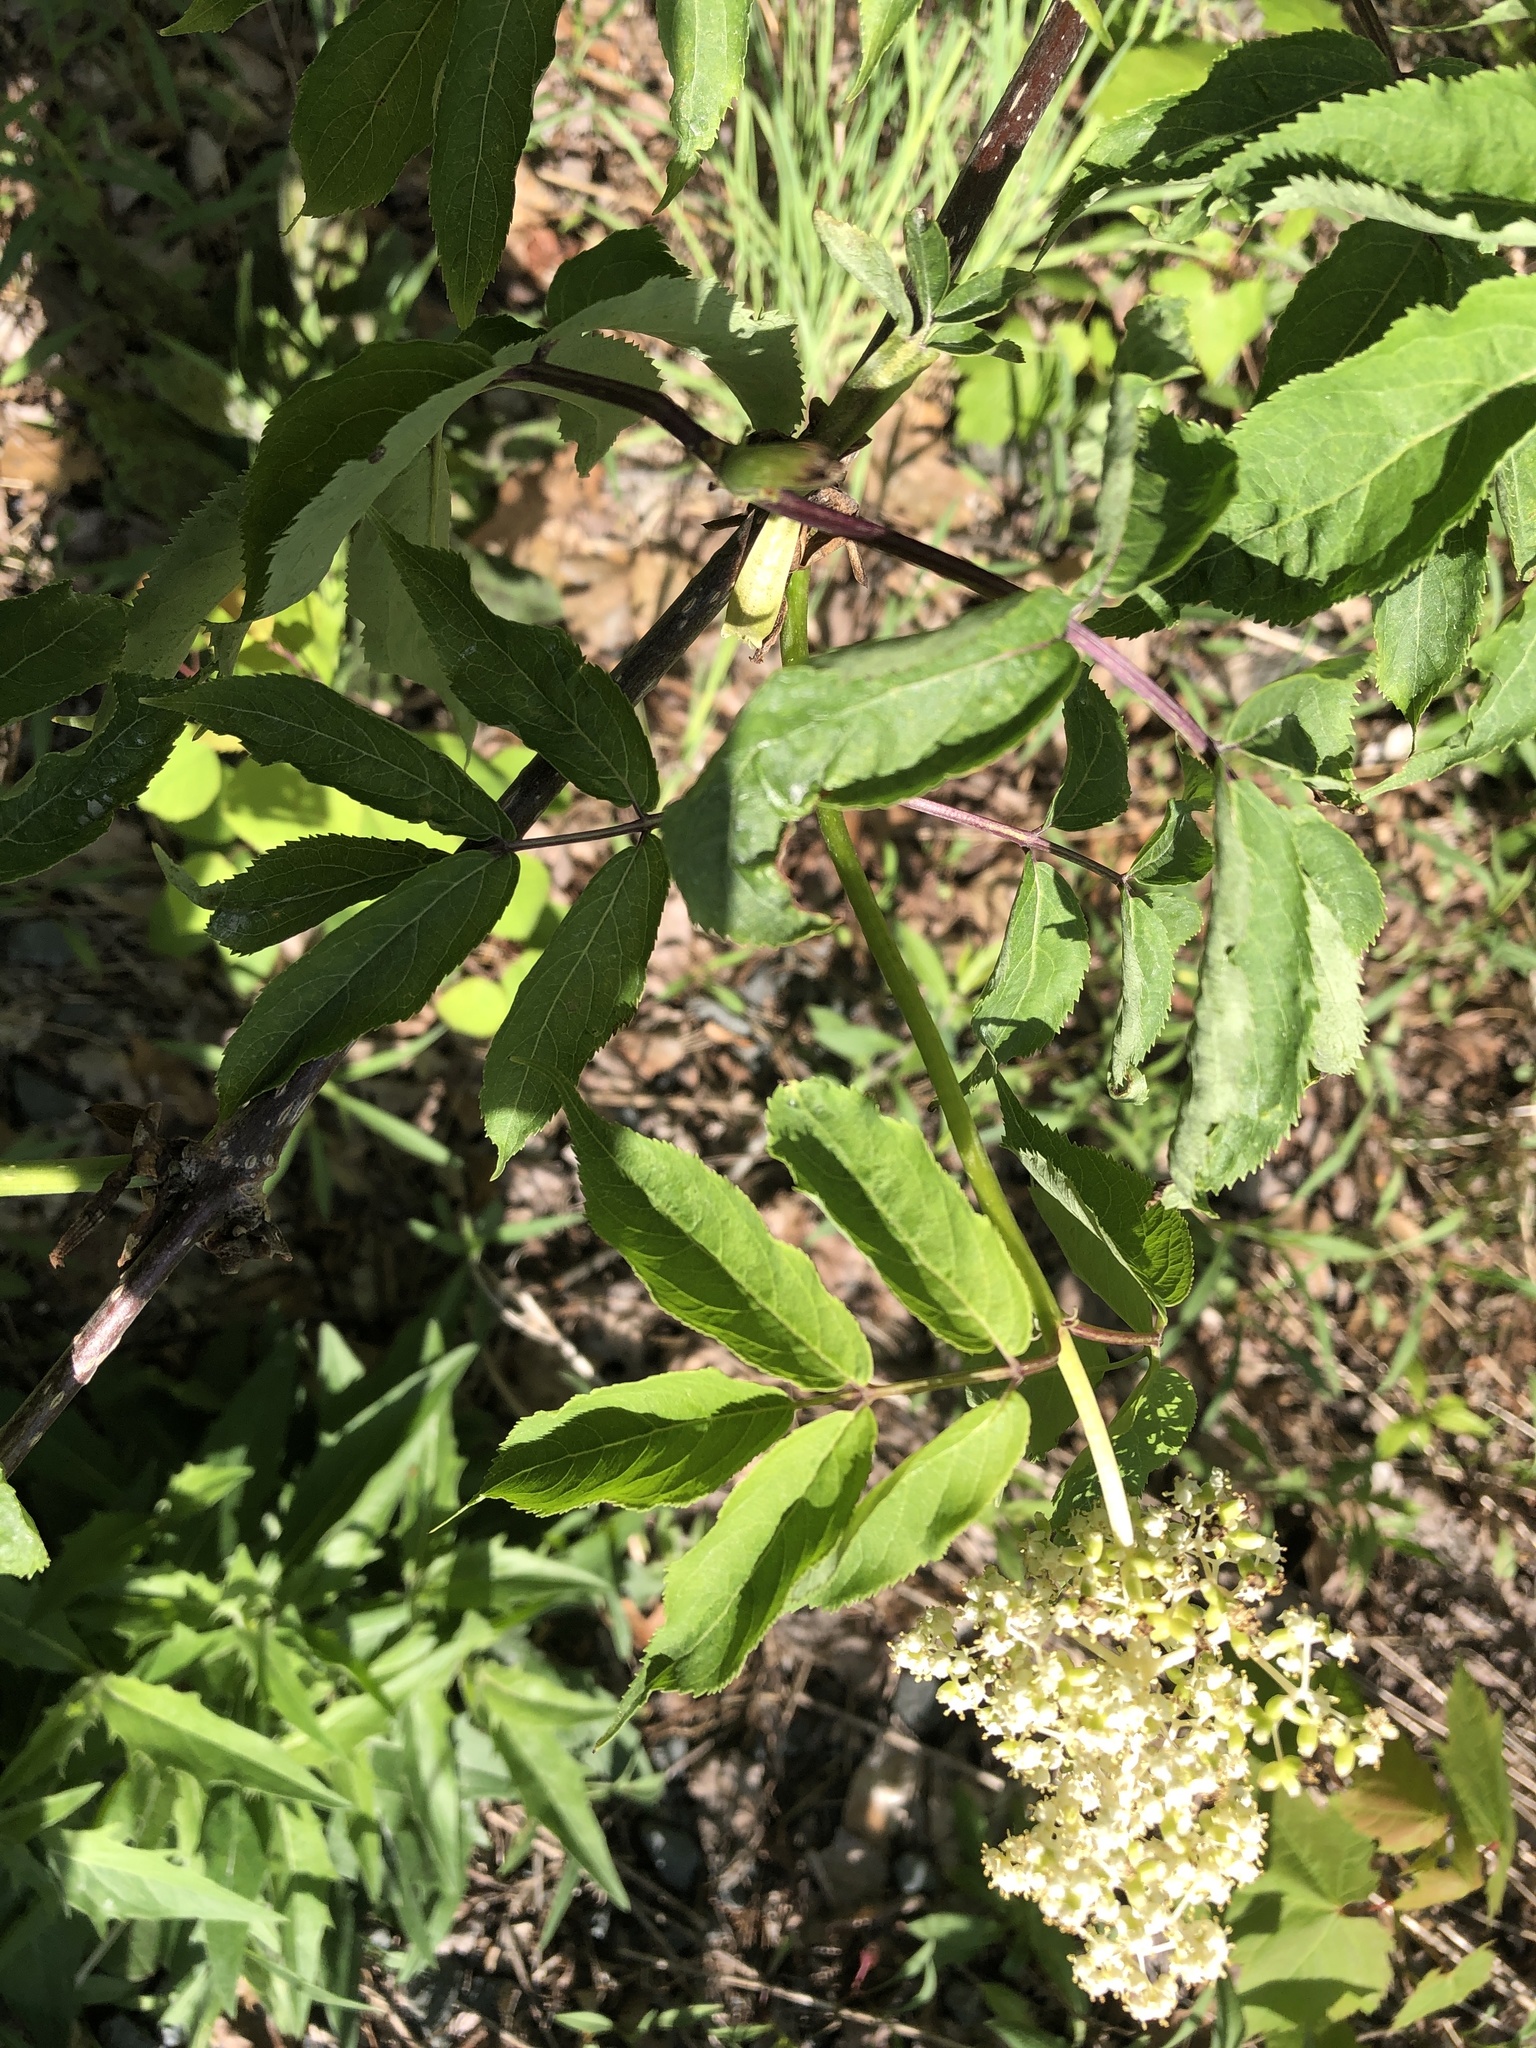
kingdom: Plantae
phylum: Tracheophyta
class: Magnoliopsida
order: Dipsacales
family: Viburnaceae
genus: Sambucus
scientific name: Sambucus racemosa
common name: Red-berried elder
